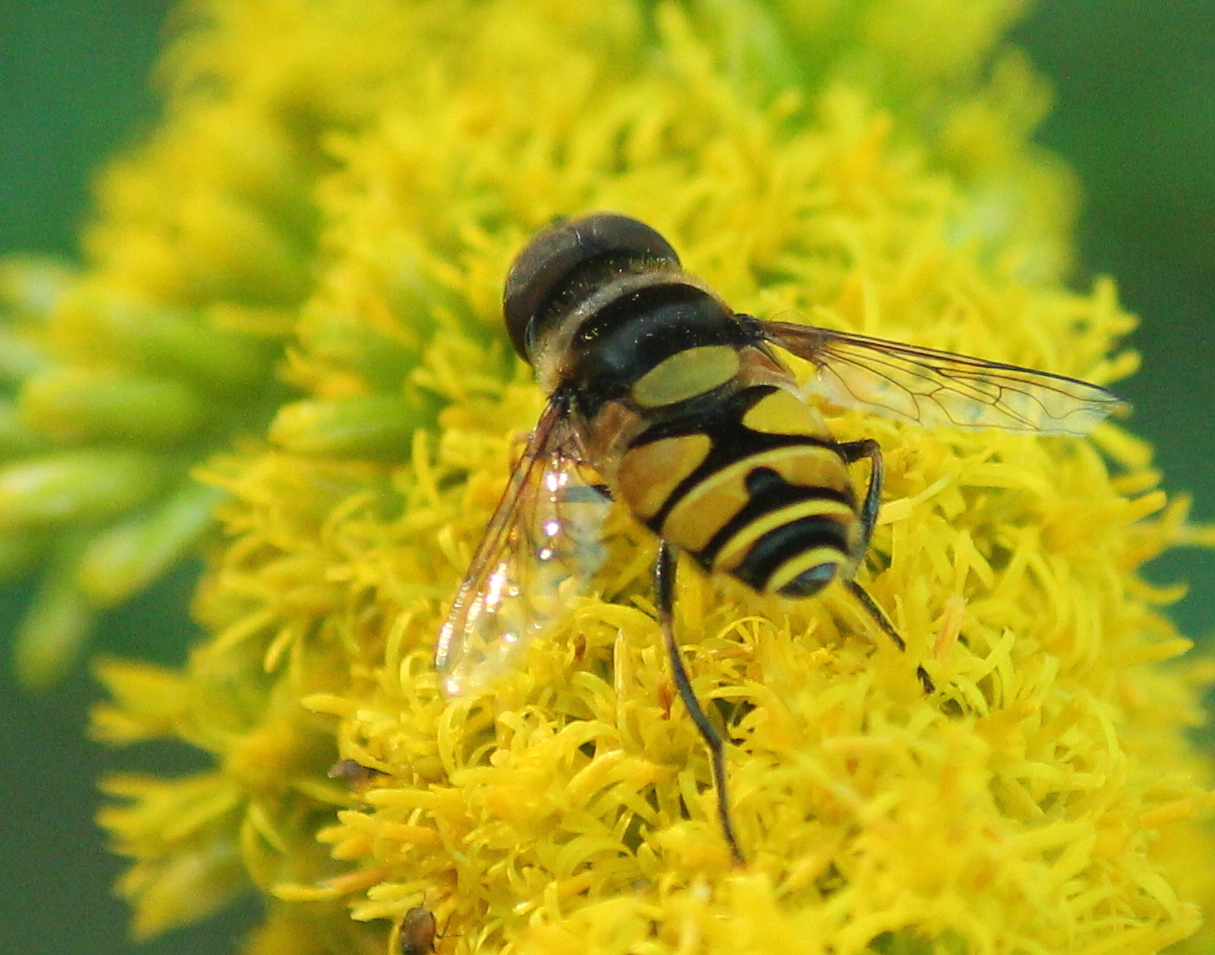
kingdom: Animalia
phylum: Arthropoda
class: Insecta
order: Diptera
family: Syrphidae
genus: Eristalis
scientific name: Eristalis transversa
